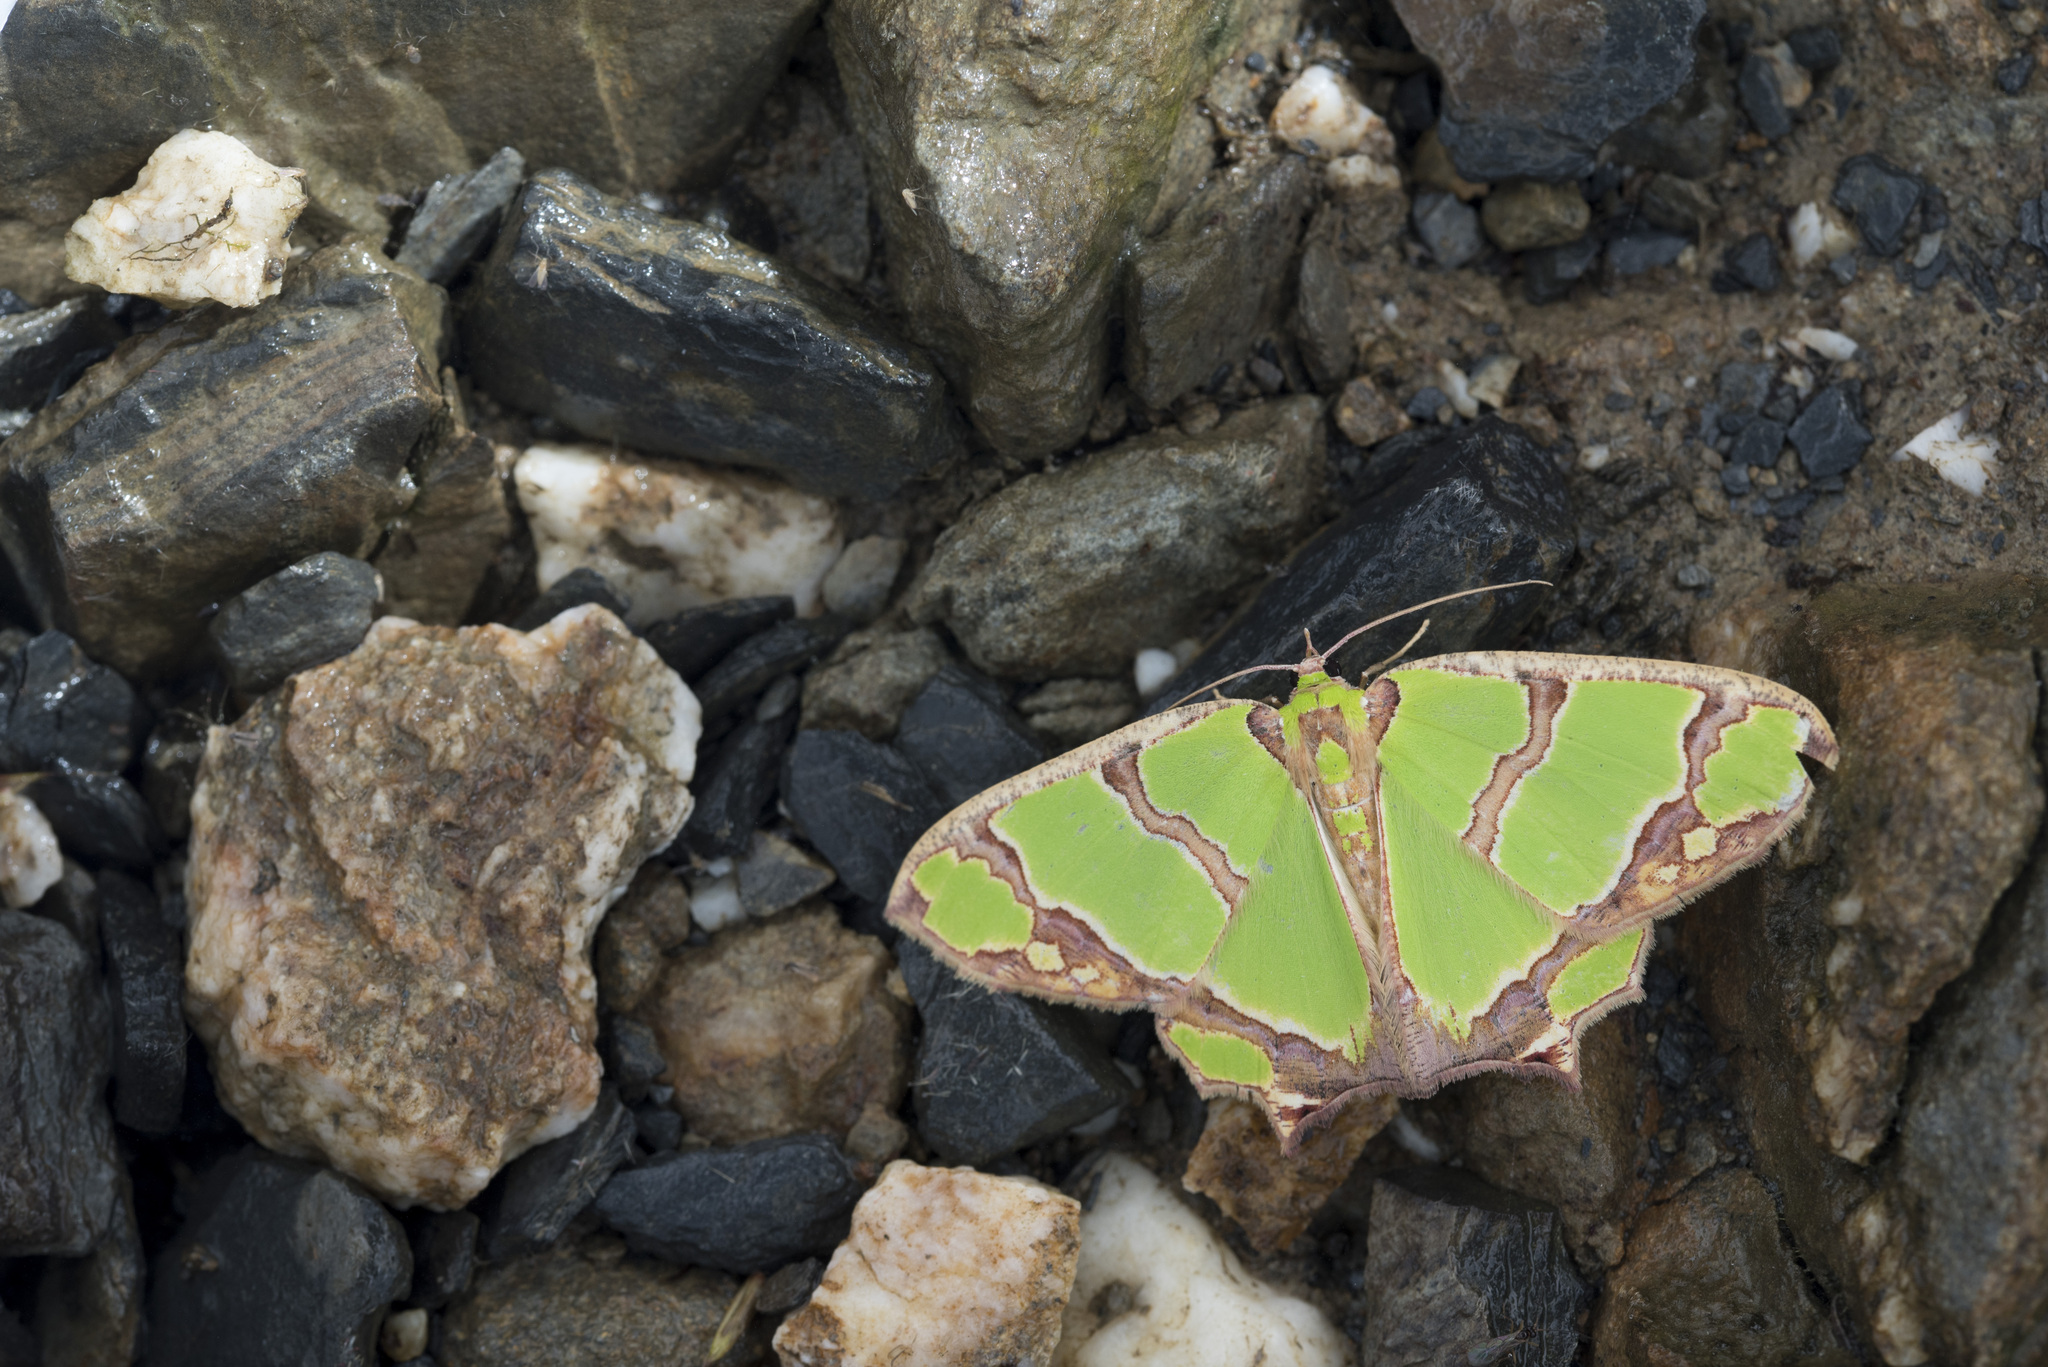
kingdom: Animalia
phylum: Arthropoda
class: Insecta
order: Lepidoptera
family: Geometridae
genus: Agathia
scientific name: Agathia magnificentia
